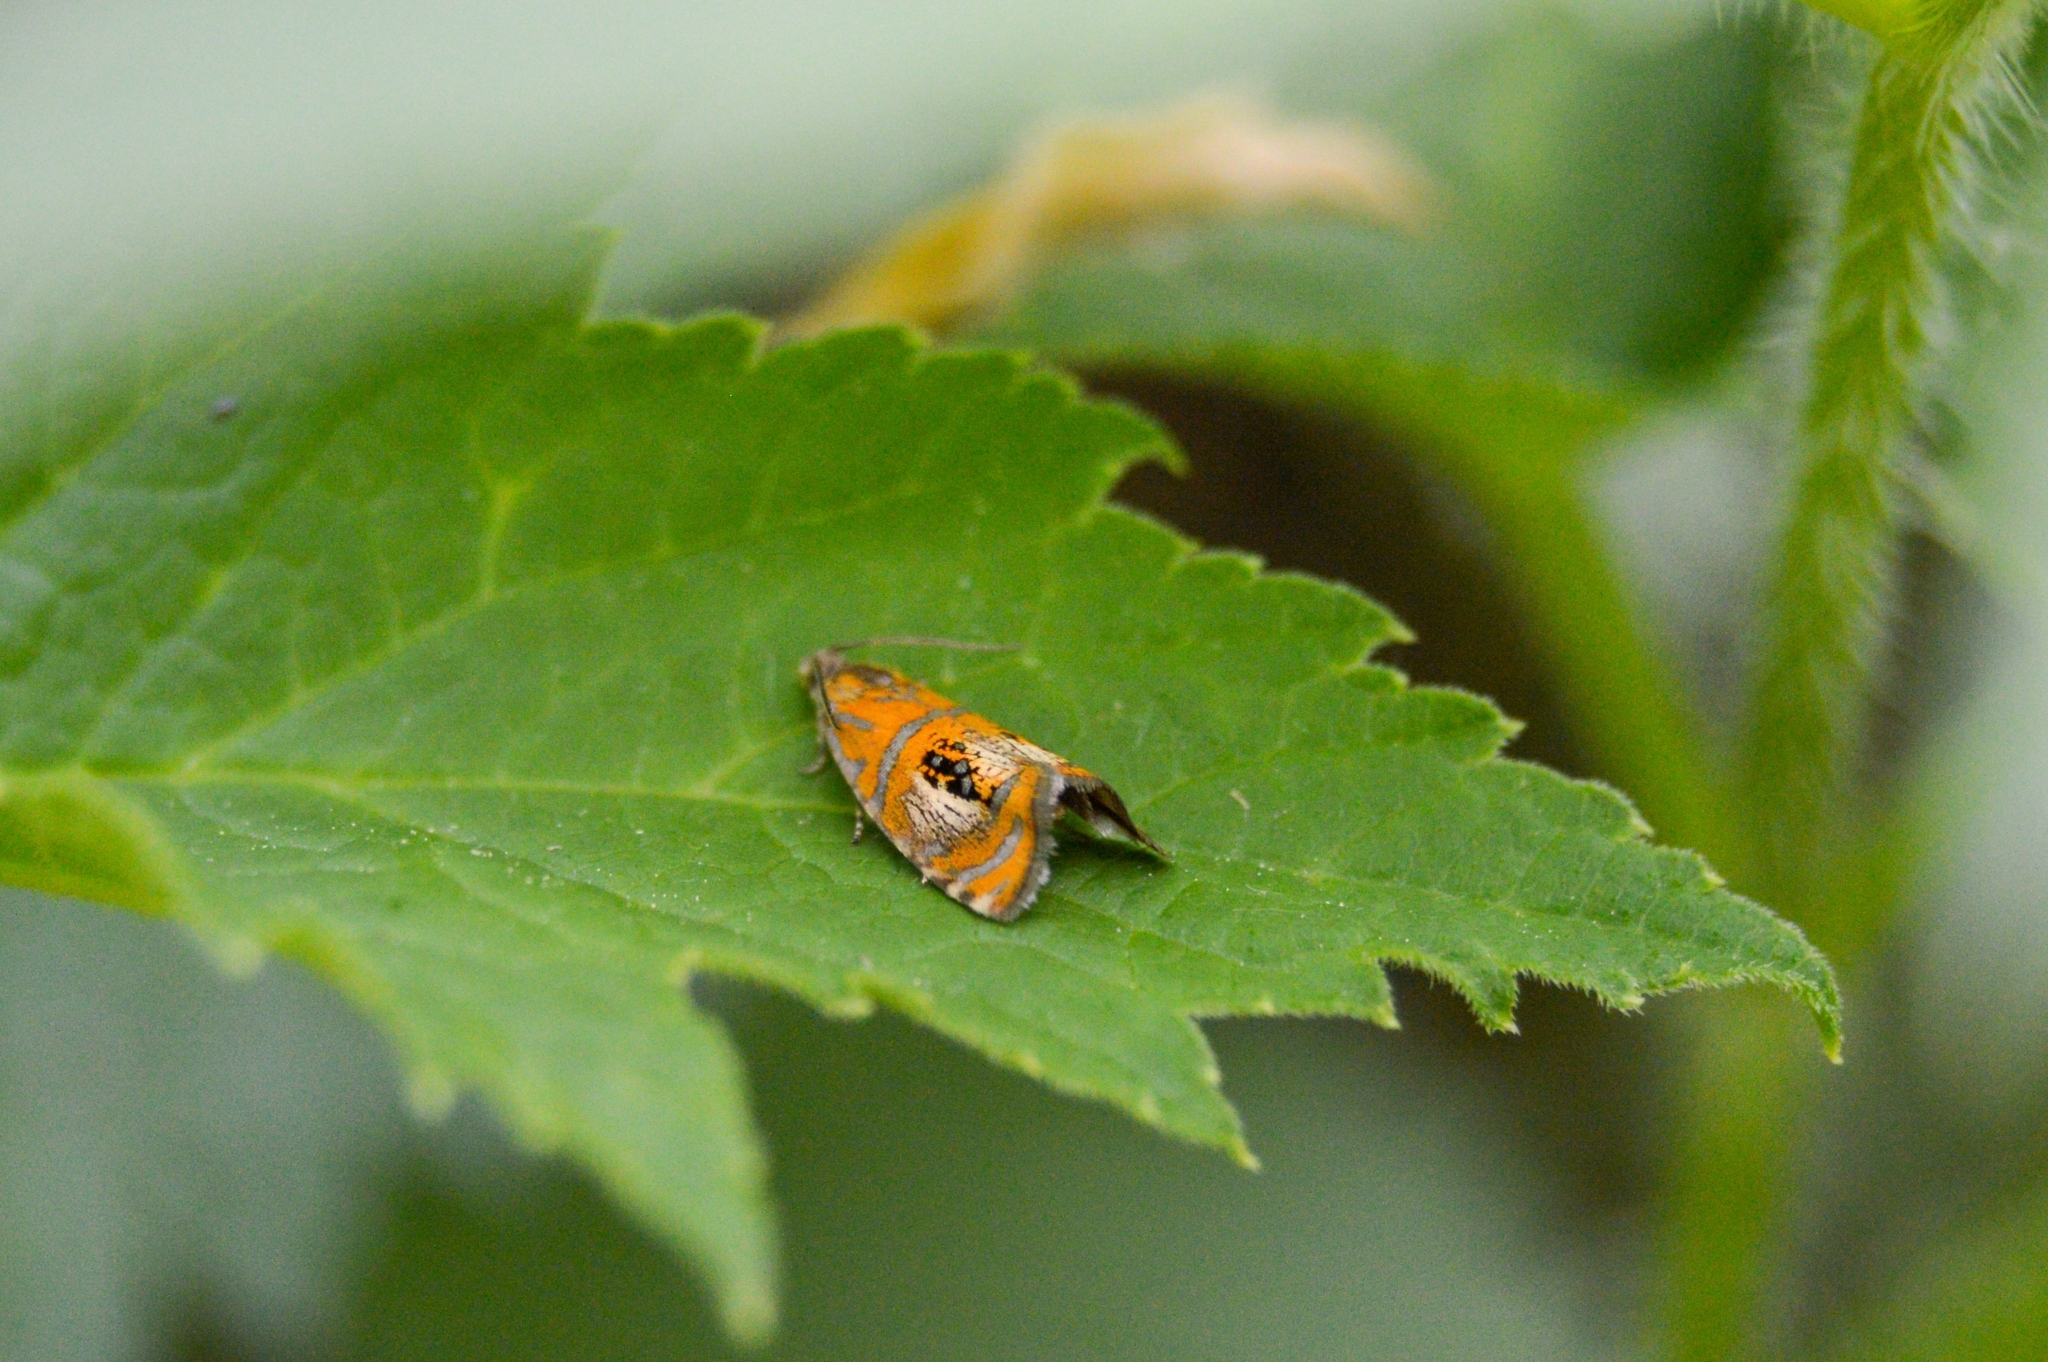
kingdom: Animalia
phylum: Arthropoda
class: Insecta
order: Lepidoptera
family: Tortricidae
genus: Olethreutes
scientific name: Olethreutes arcuella
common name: Arched marble
